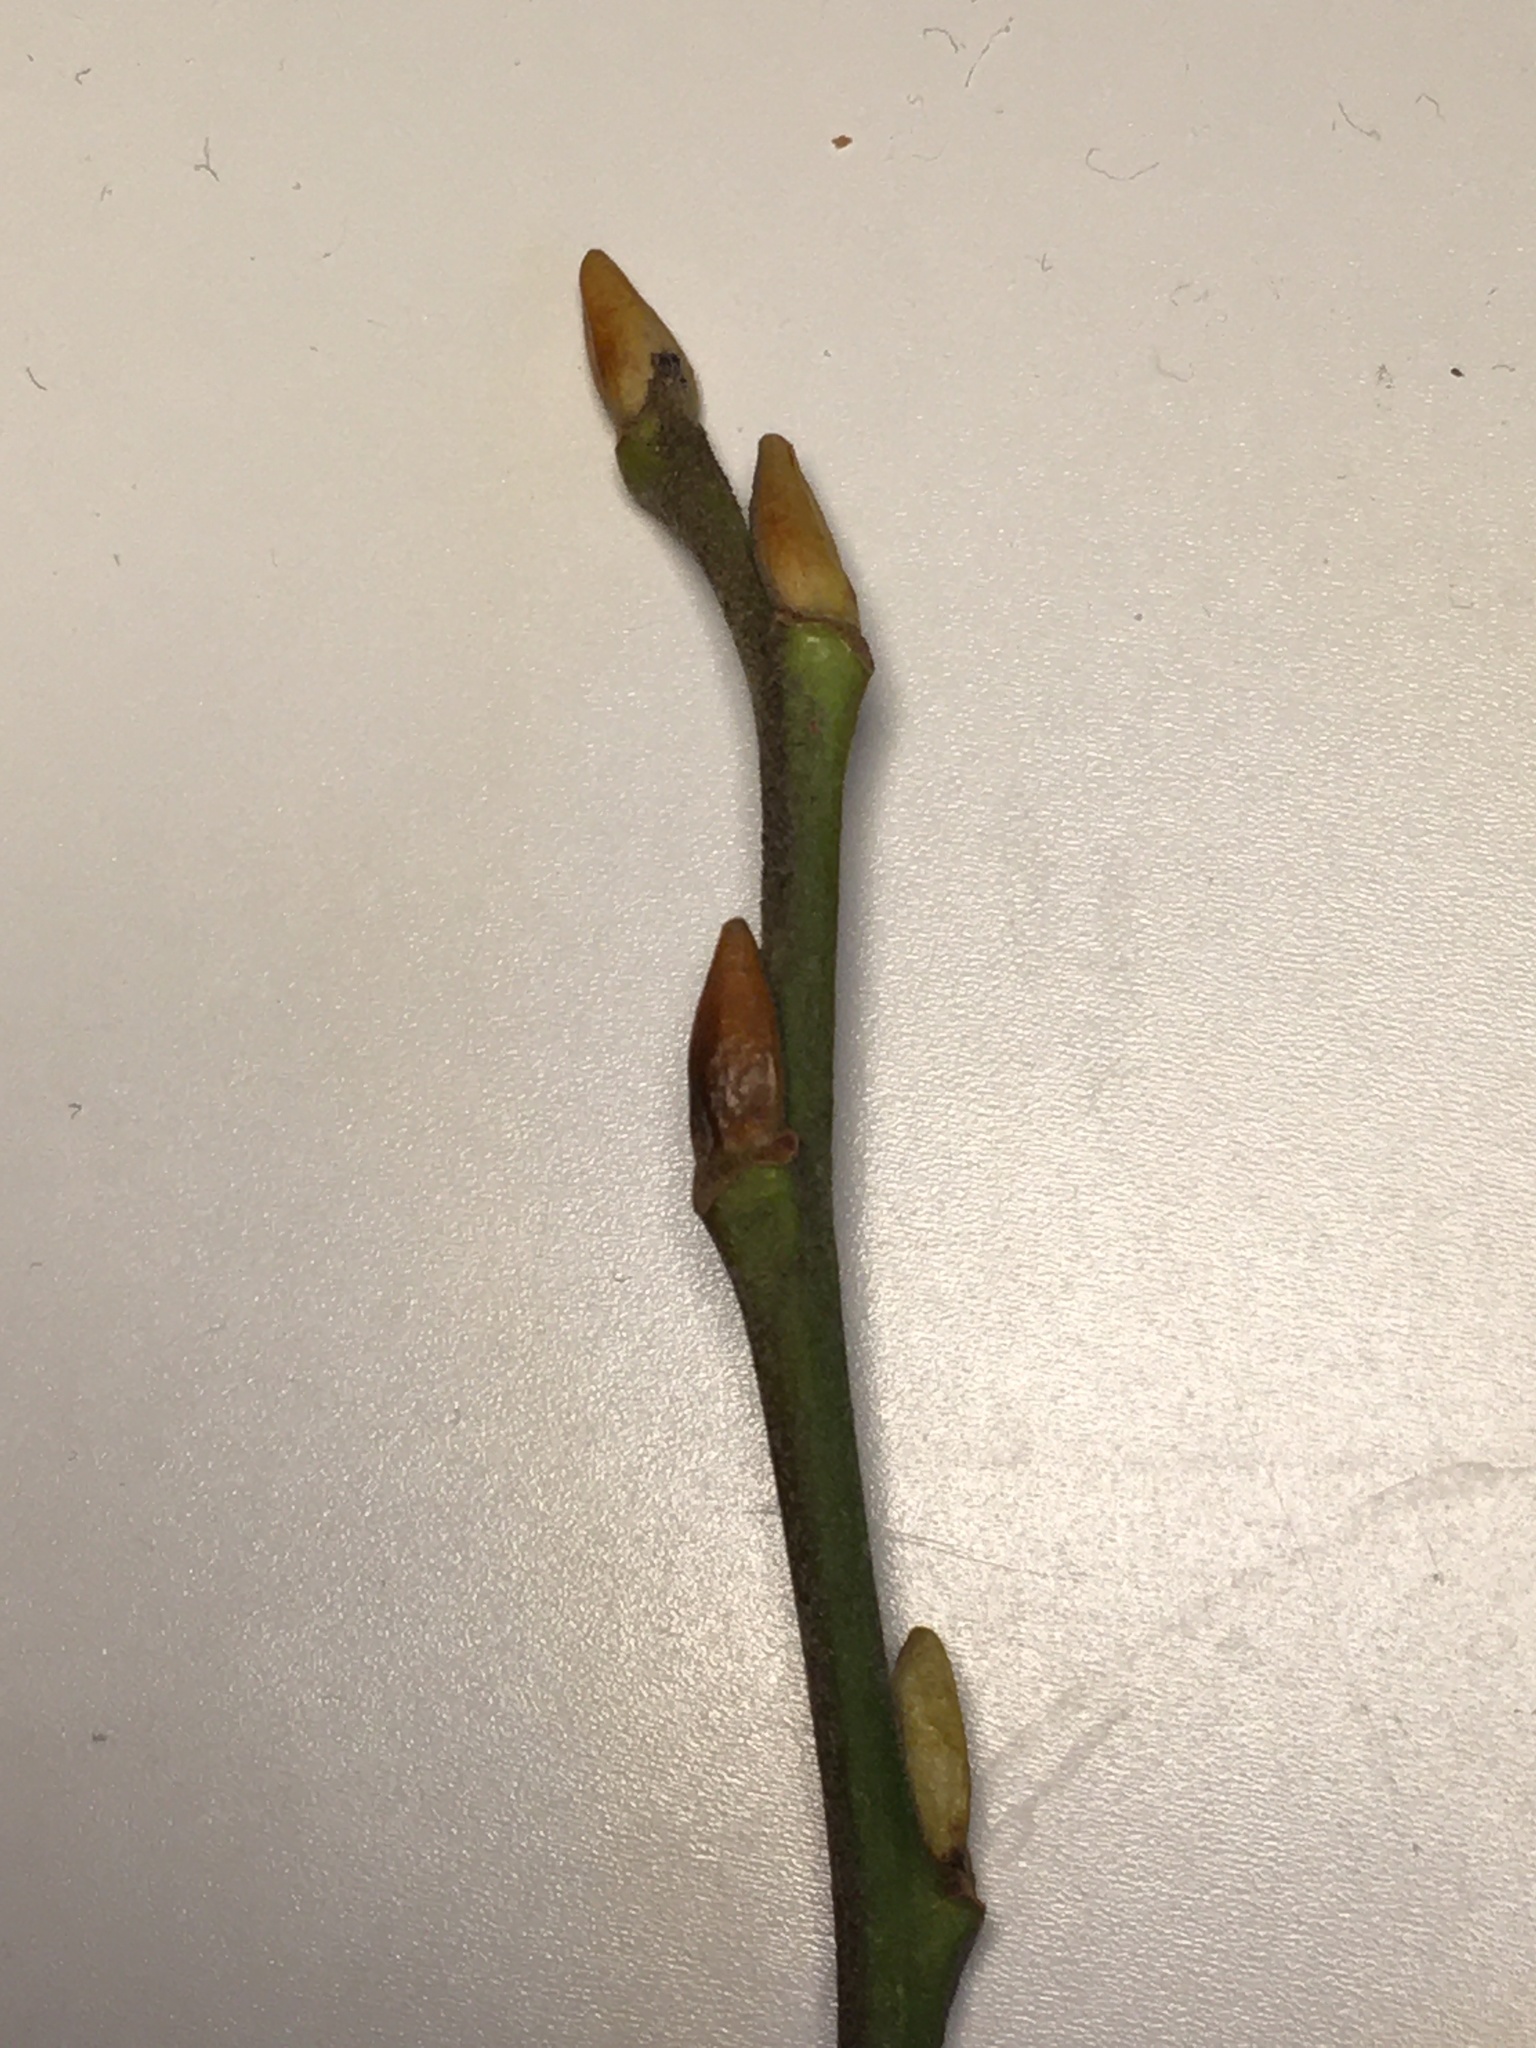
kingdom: Plantae
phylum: Tracheophyta
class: Magnoliopsida
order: Malpighiales
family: Salicaceae
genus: Salix
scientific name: Salix caprea
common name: Goat willow
